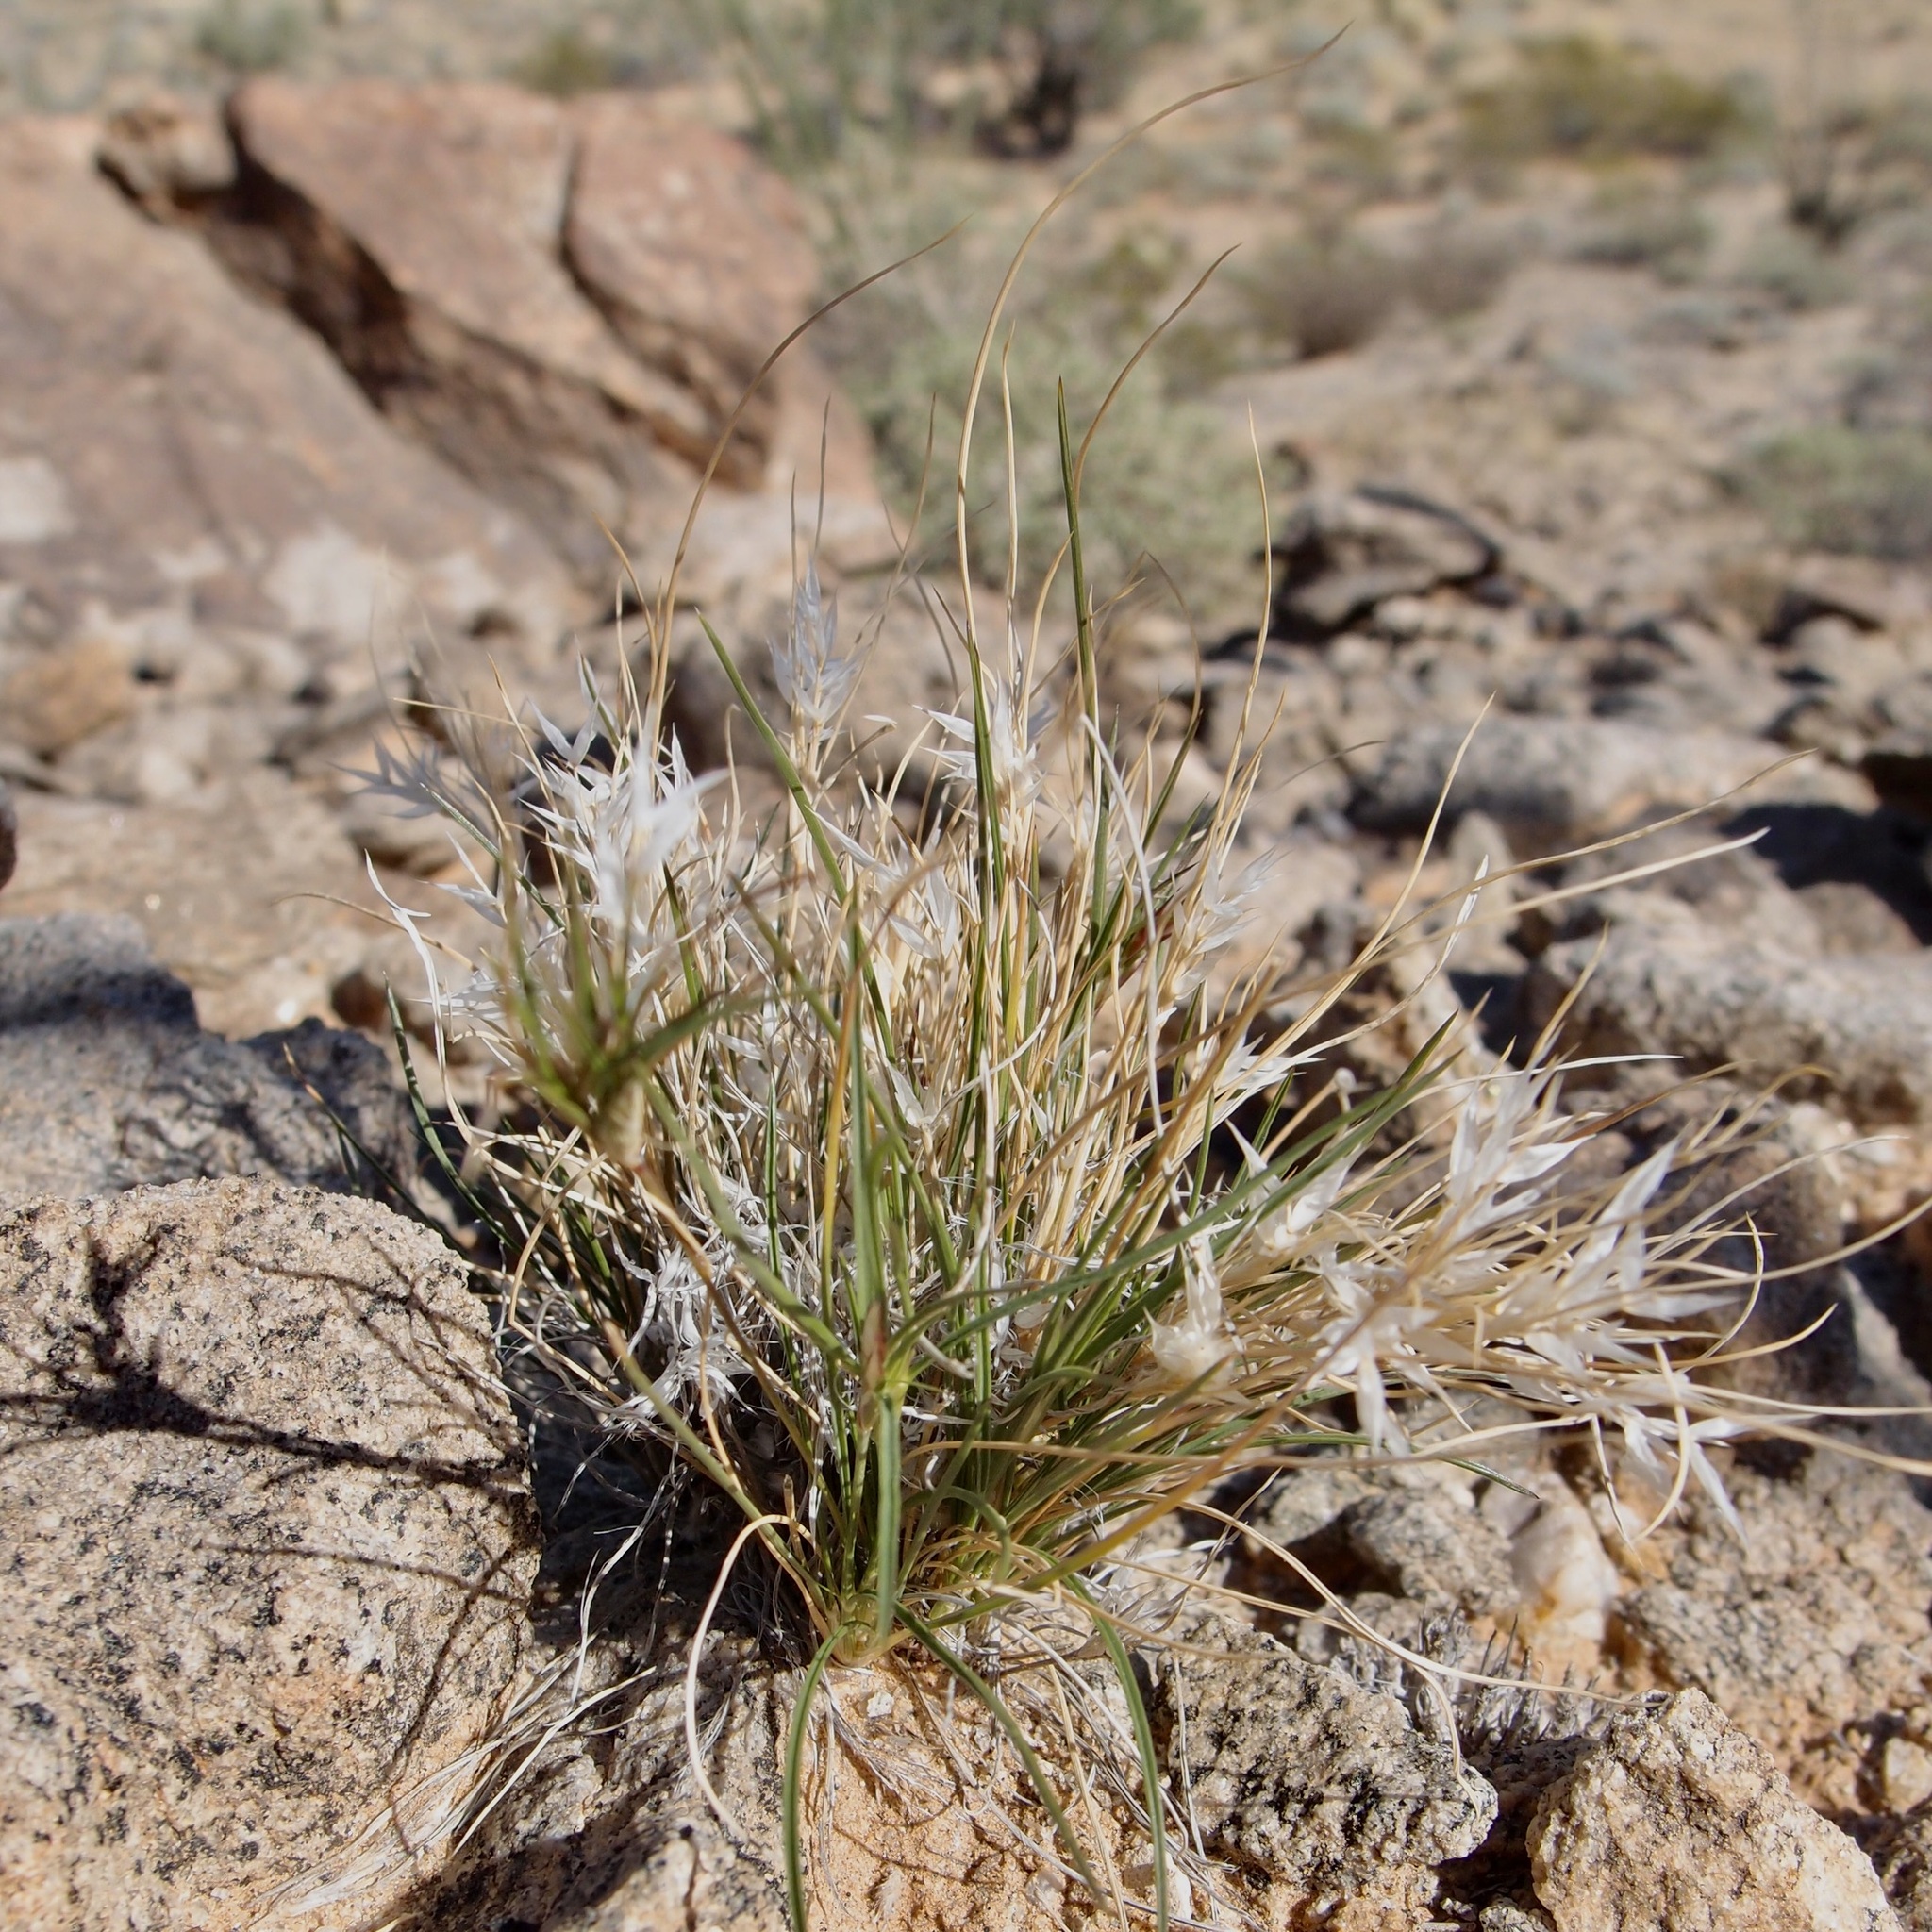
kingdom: Plantae
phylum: Tracheophyta
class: Liliopsida
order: Poales
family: Poaceae
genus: Dasyochloa
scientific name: Dasyochloa pulchella
